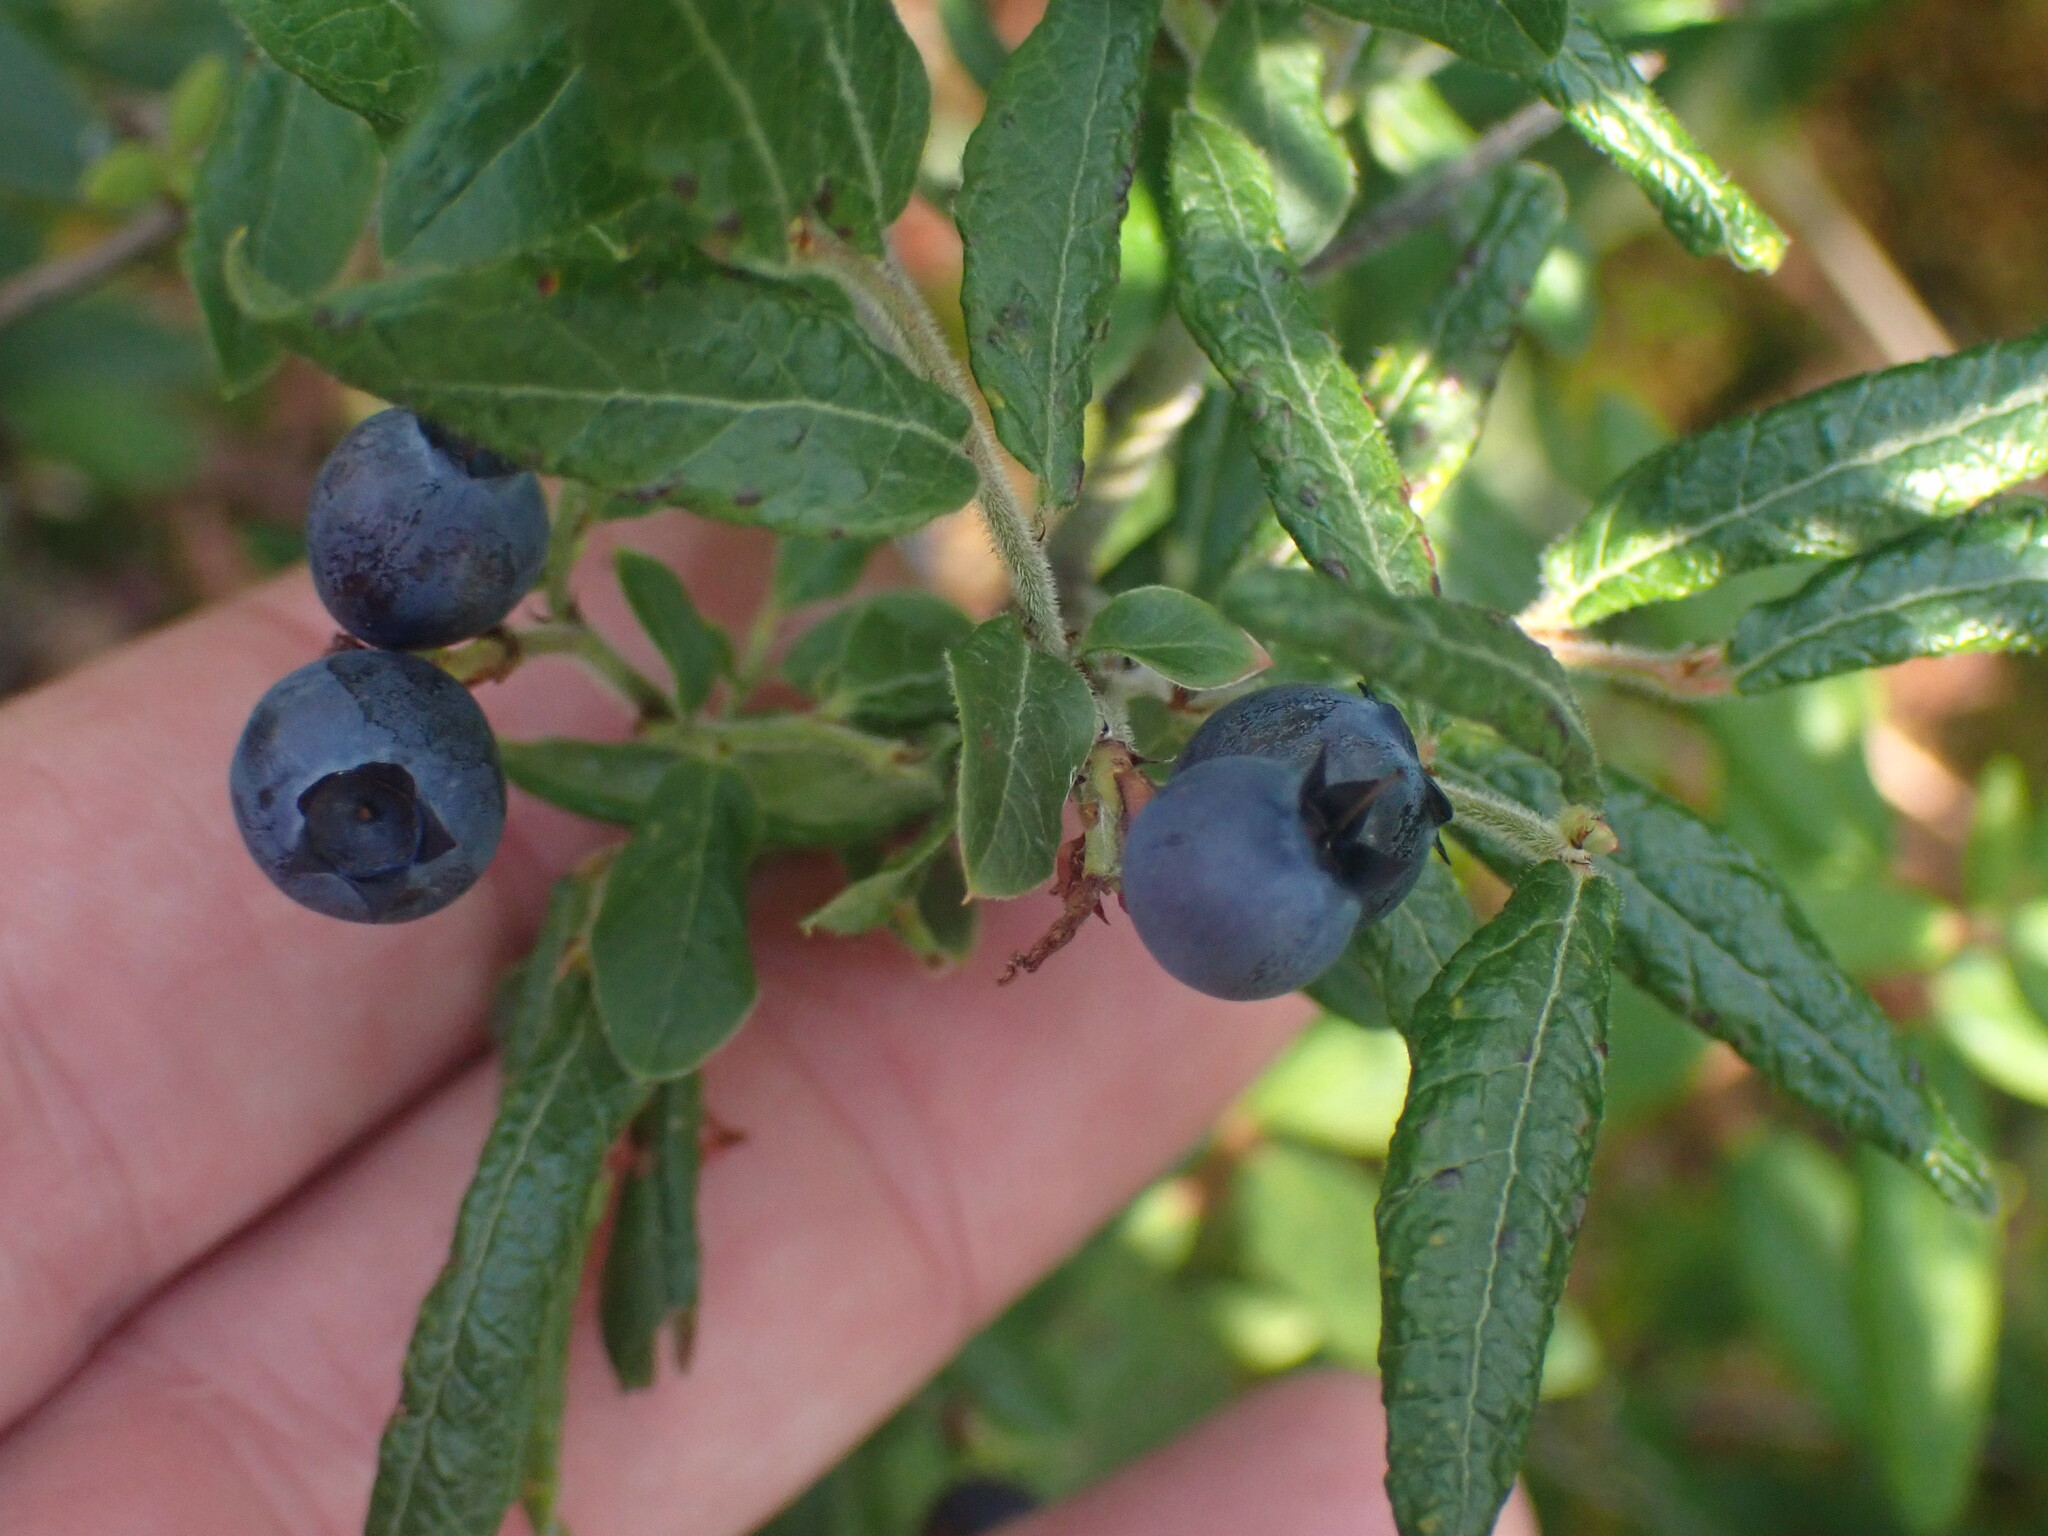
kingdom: Plantae
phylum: Tracheophyta
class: Magnoliopsida
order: Ericales
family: Ericaceae
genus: Vaccinium
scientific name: Vaccinium myrtilloides
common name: Canada blueberry
